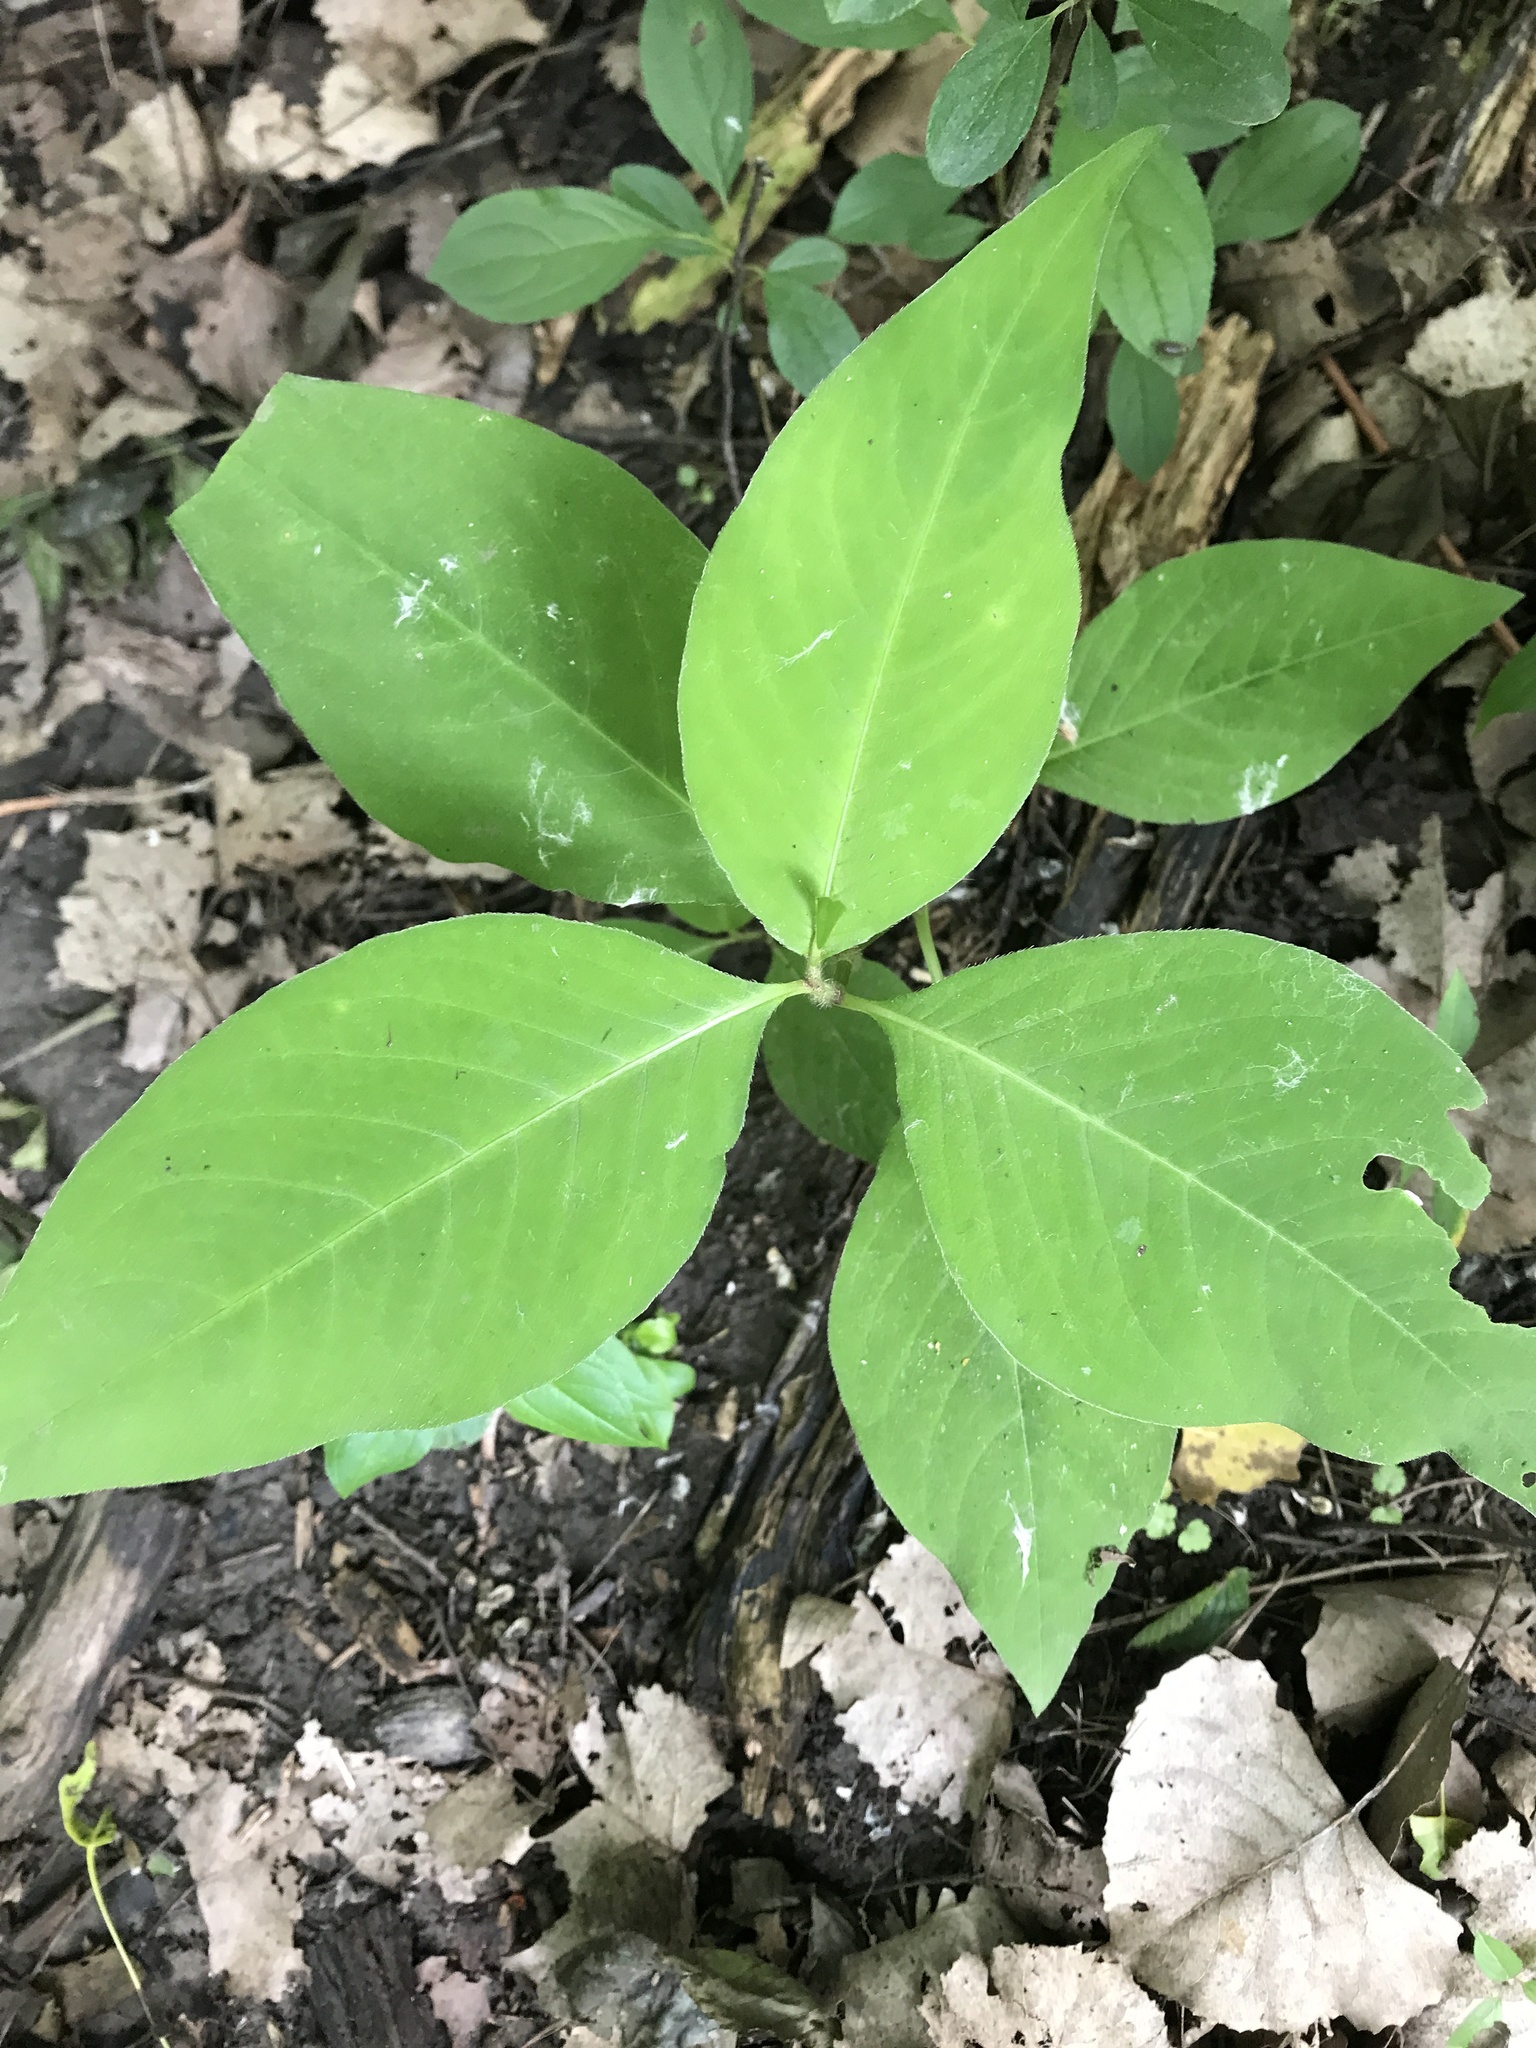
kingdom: Plantae
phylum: Tracheophyta
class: Magnoliopsida
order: Caryophyllales
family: Polygonaceae
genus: Persicaria
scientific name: Persicaria virginiana
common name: Jumpseed
